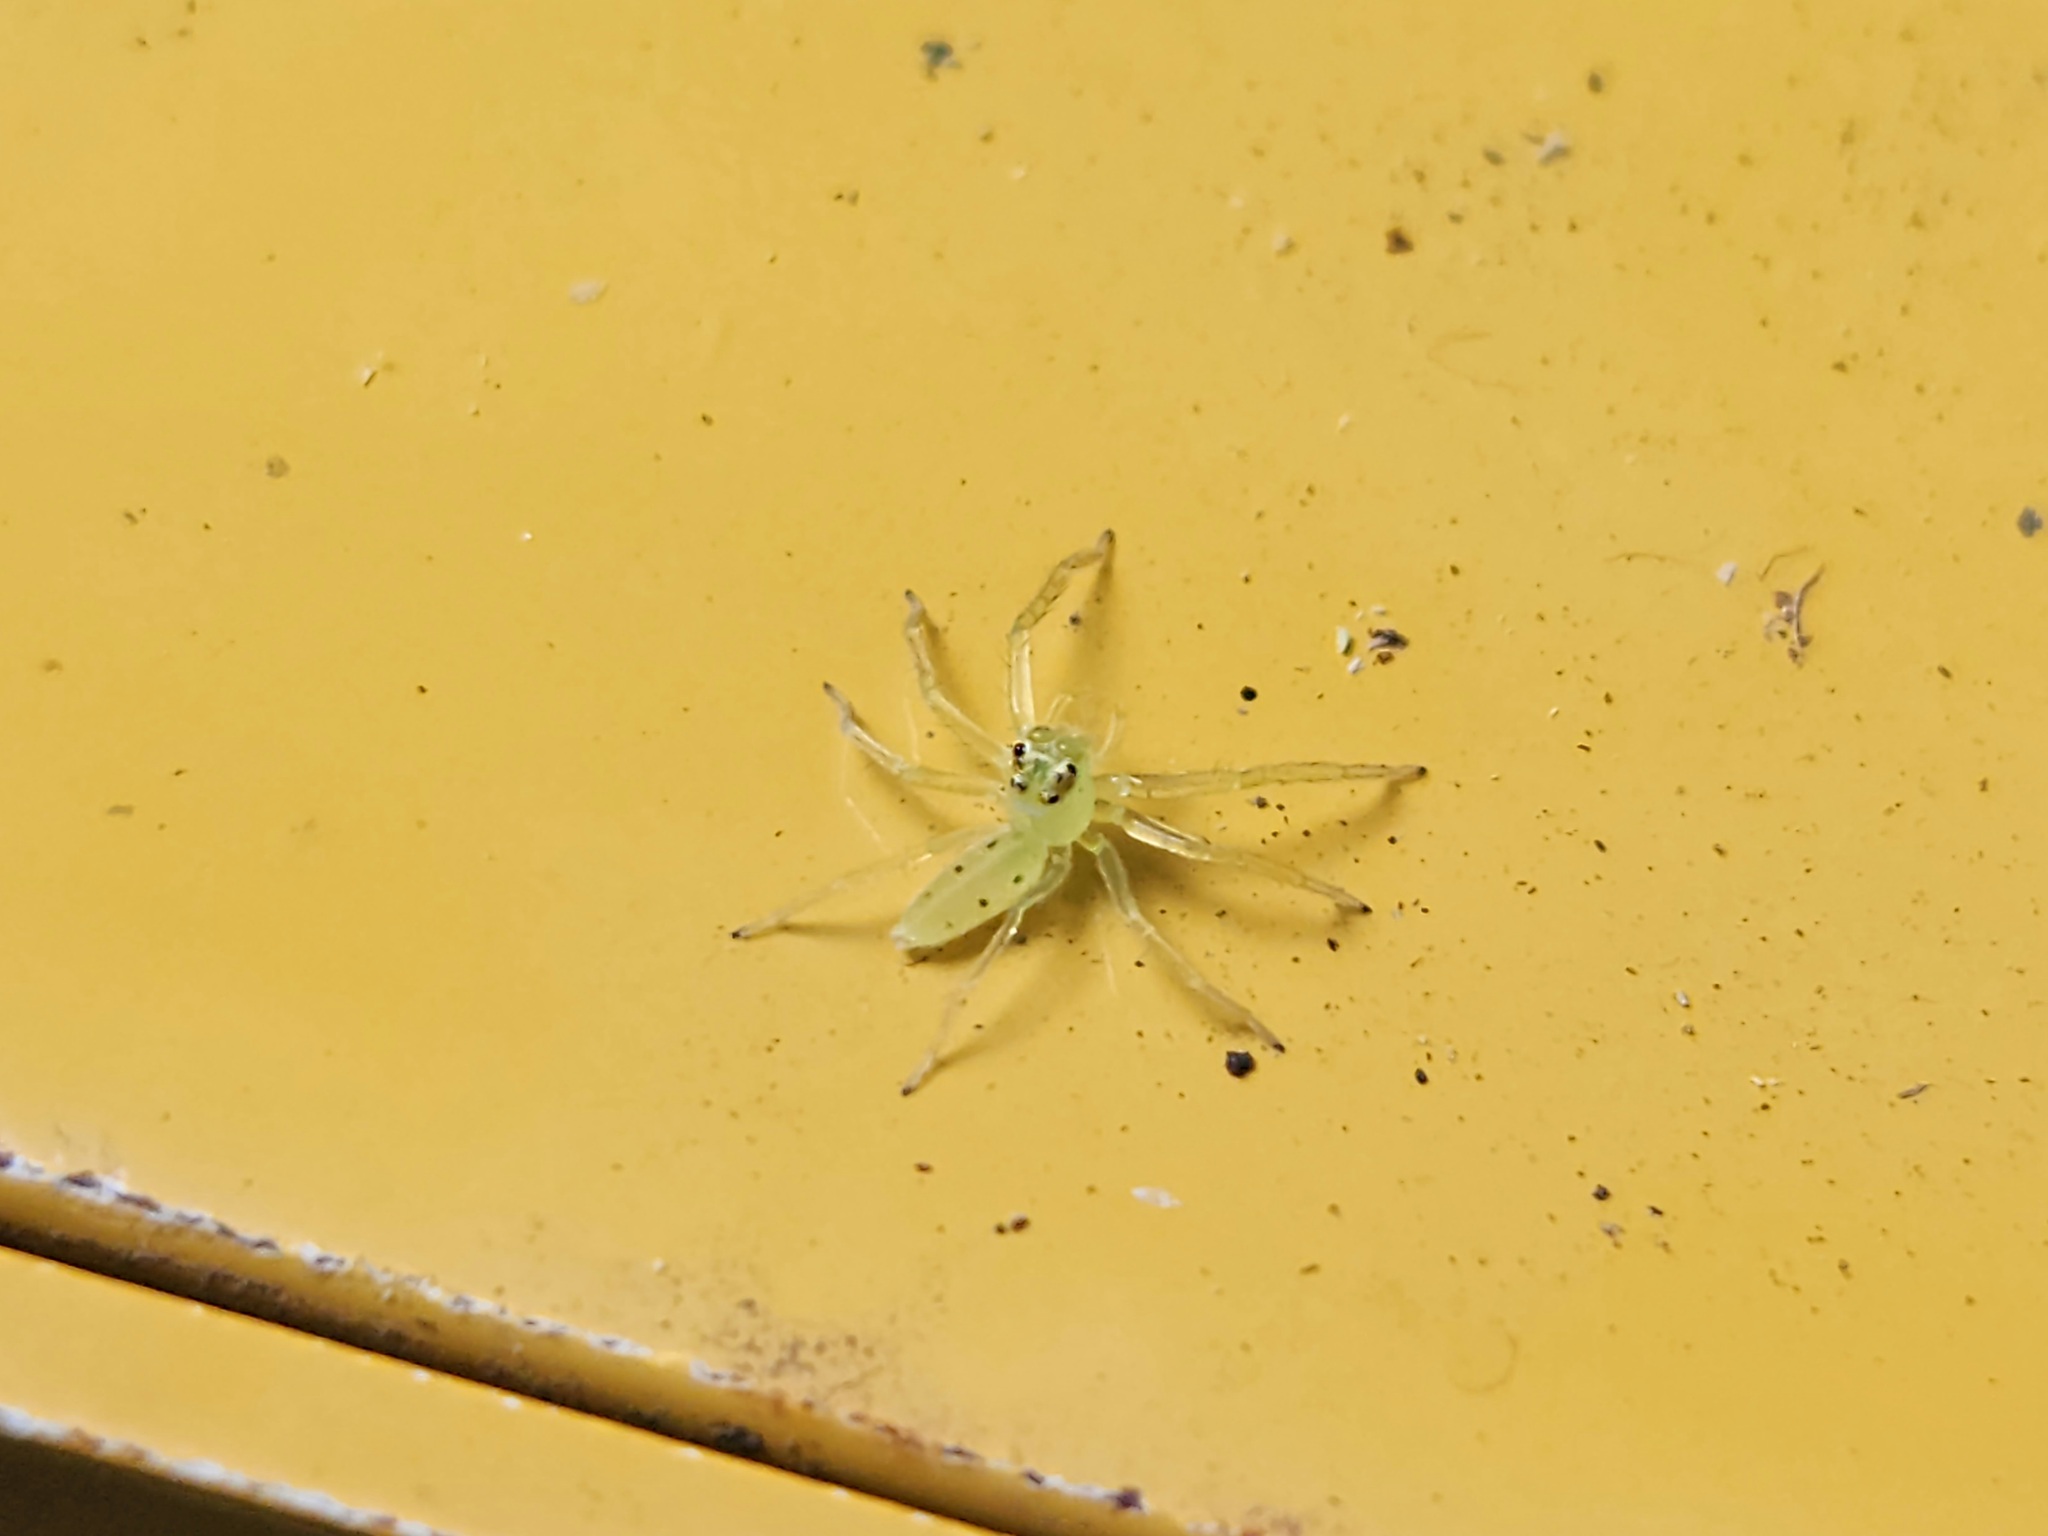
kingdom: Animalia
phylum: Arthropoda
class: Arachnida
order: Araneae
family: Salticidae
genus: Lyssomanes
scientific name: Lyssomanes viridis
